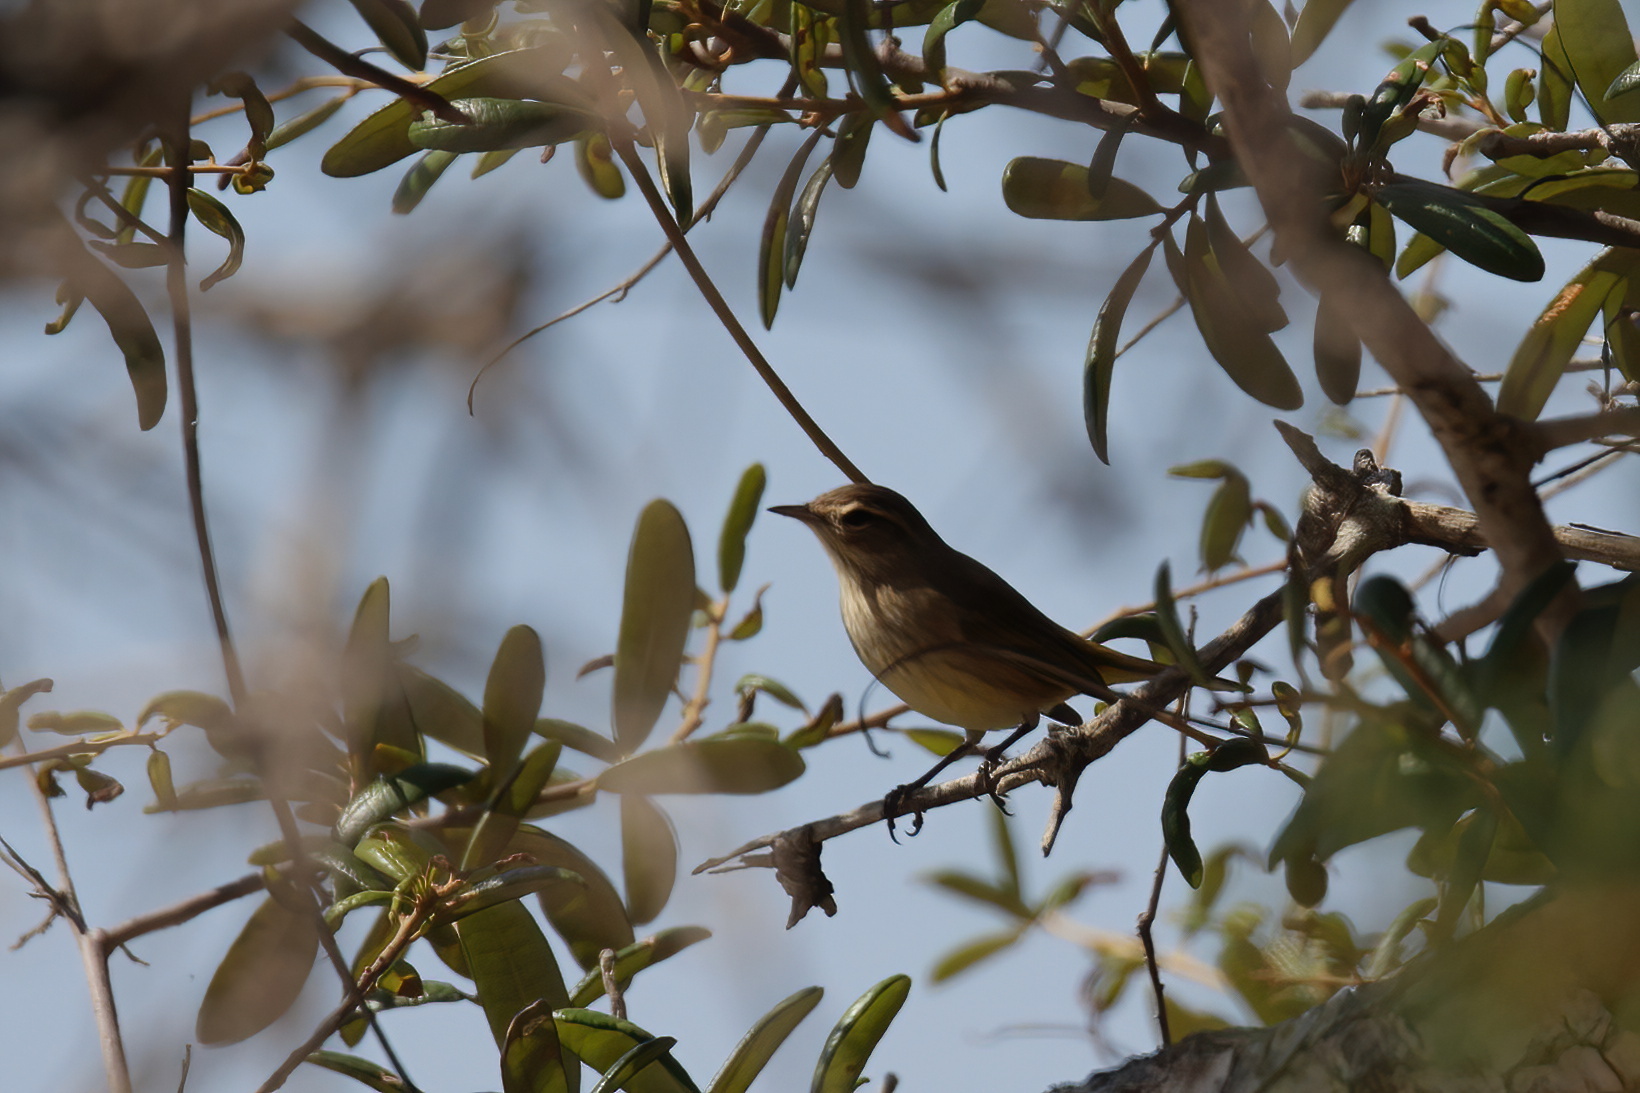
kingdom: Animalia
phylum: Chordata
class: Aves
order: Passeriformes
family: Parulidae
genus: Setophaga
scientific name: Setophaga palmarum
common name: Palm warbler
